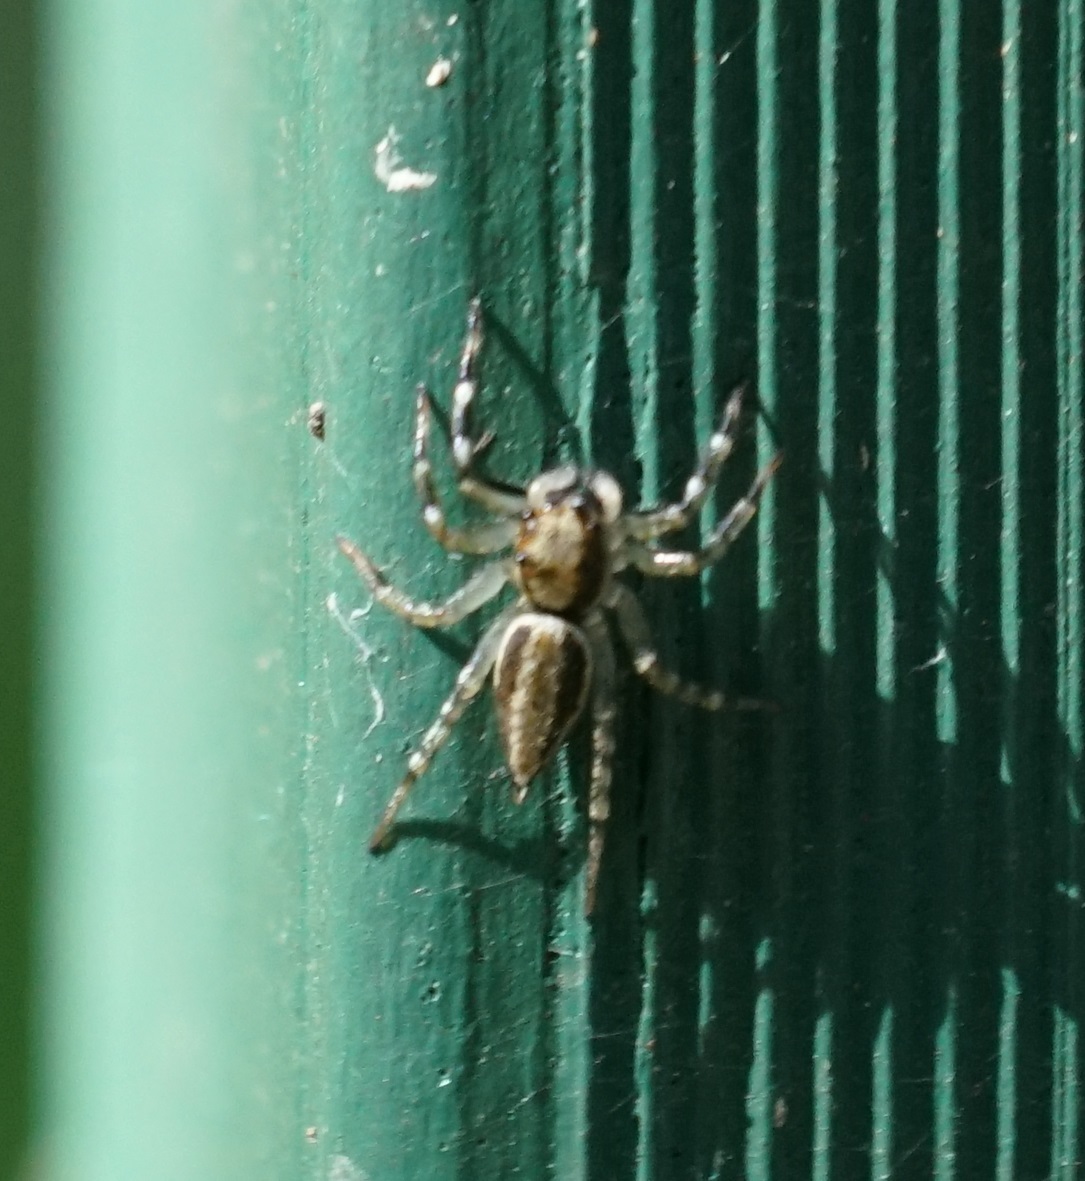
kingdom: Animalia
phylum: Arthropoda
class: Arachnida
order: Araneae
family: Salticidae
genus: Zenodorus
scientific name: Zenodorus swiftorum
